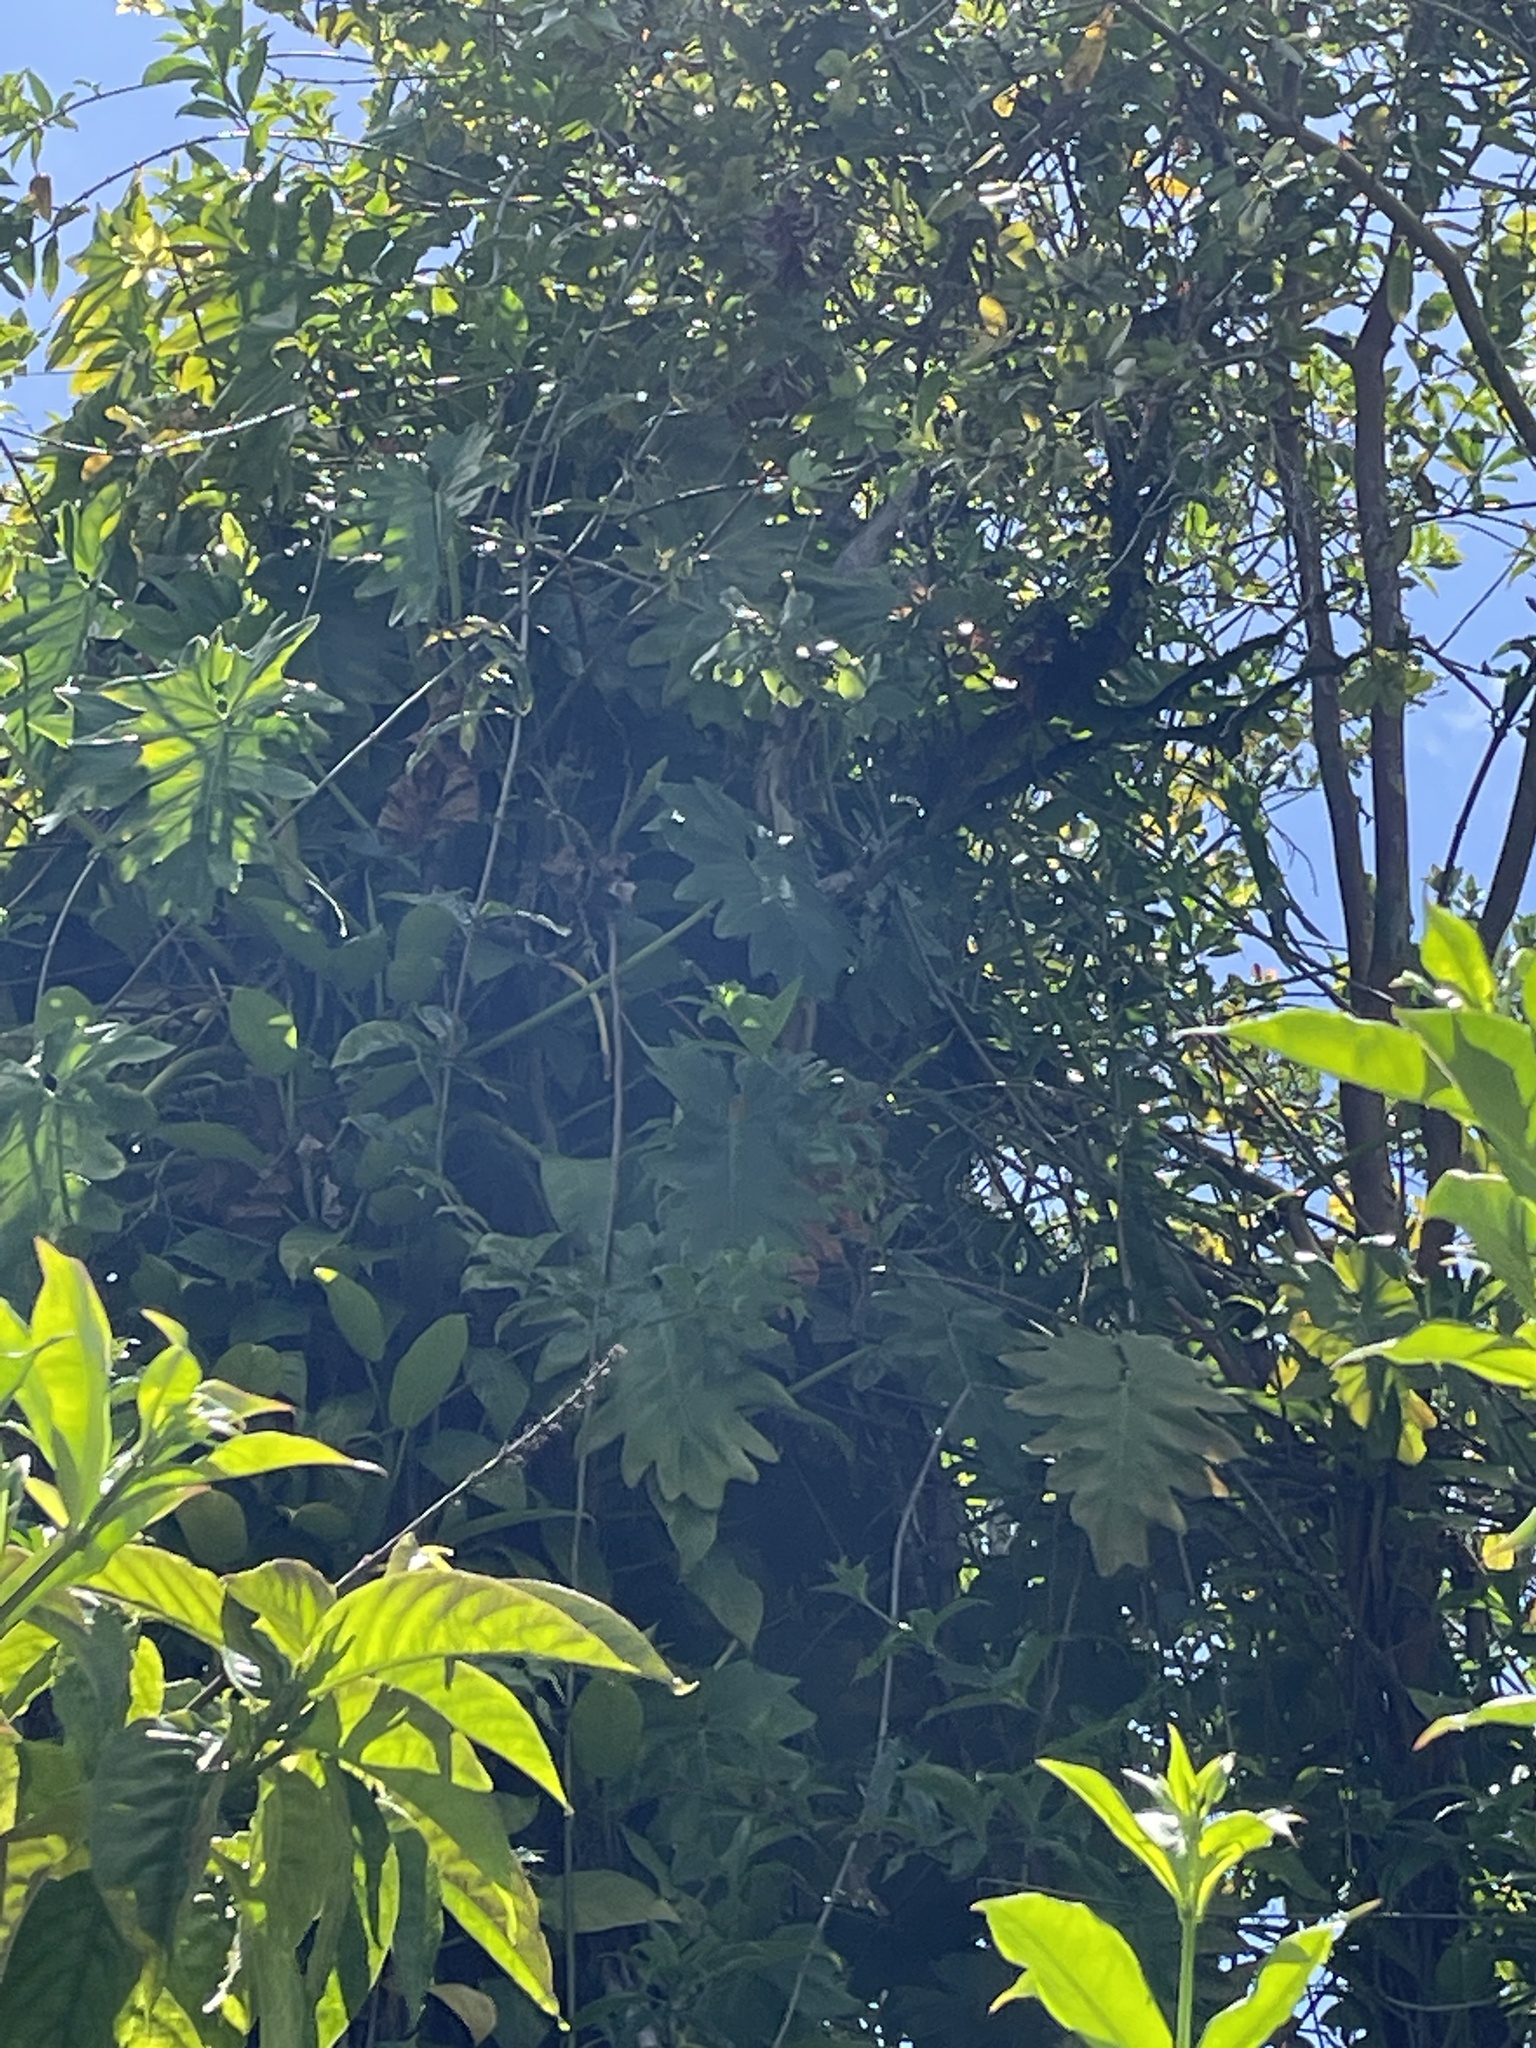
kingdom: Plantae
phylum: Tracheophyta
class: Liliopsida
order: Alismatales
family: Araceae
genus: Philodendron
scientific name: Philodendron lacerum
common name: Philodendron
